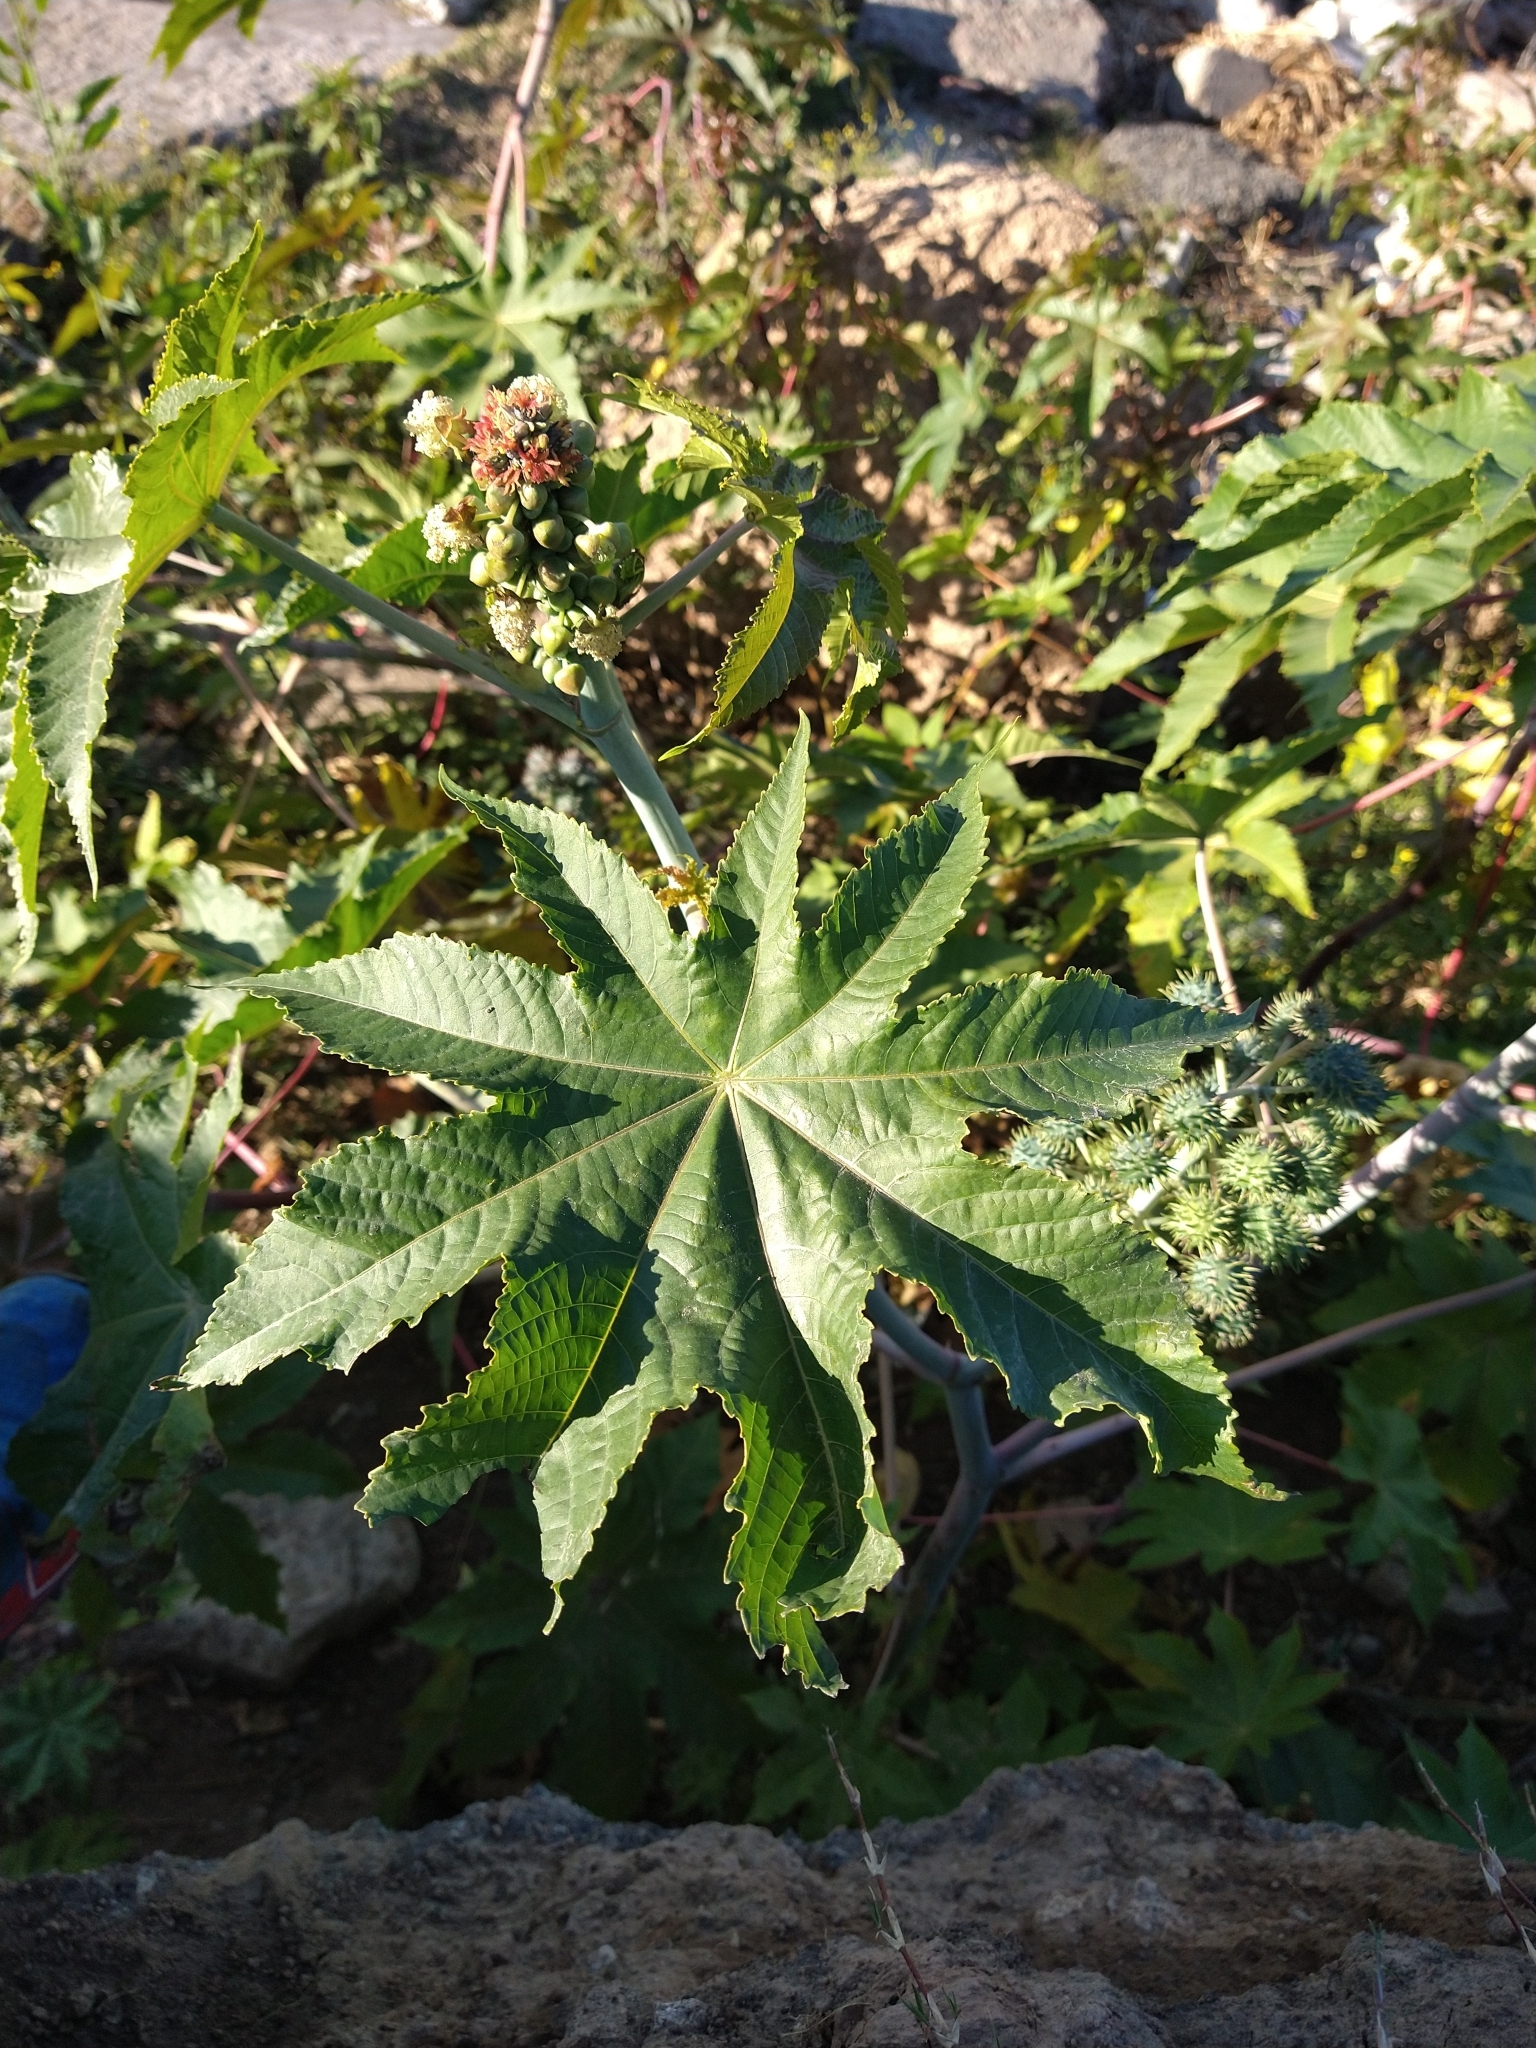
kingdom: Plantae
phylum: Tracheophyta
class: Magnoliopsida
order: Malpighiales
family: Euphorbiaceae
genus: Ricinus
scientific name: Ricinus communis
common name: Castor-oil-plant
